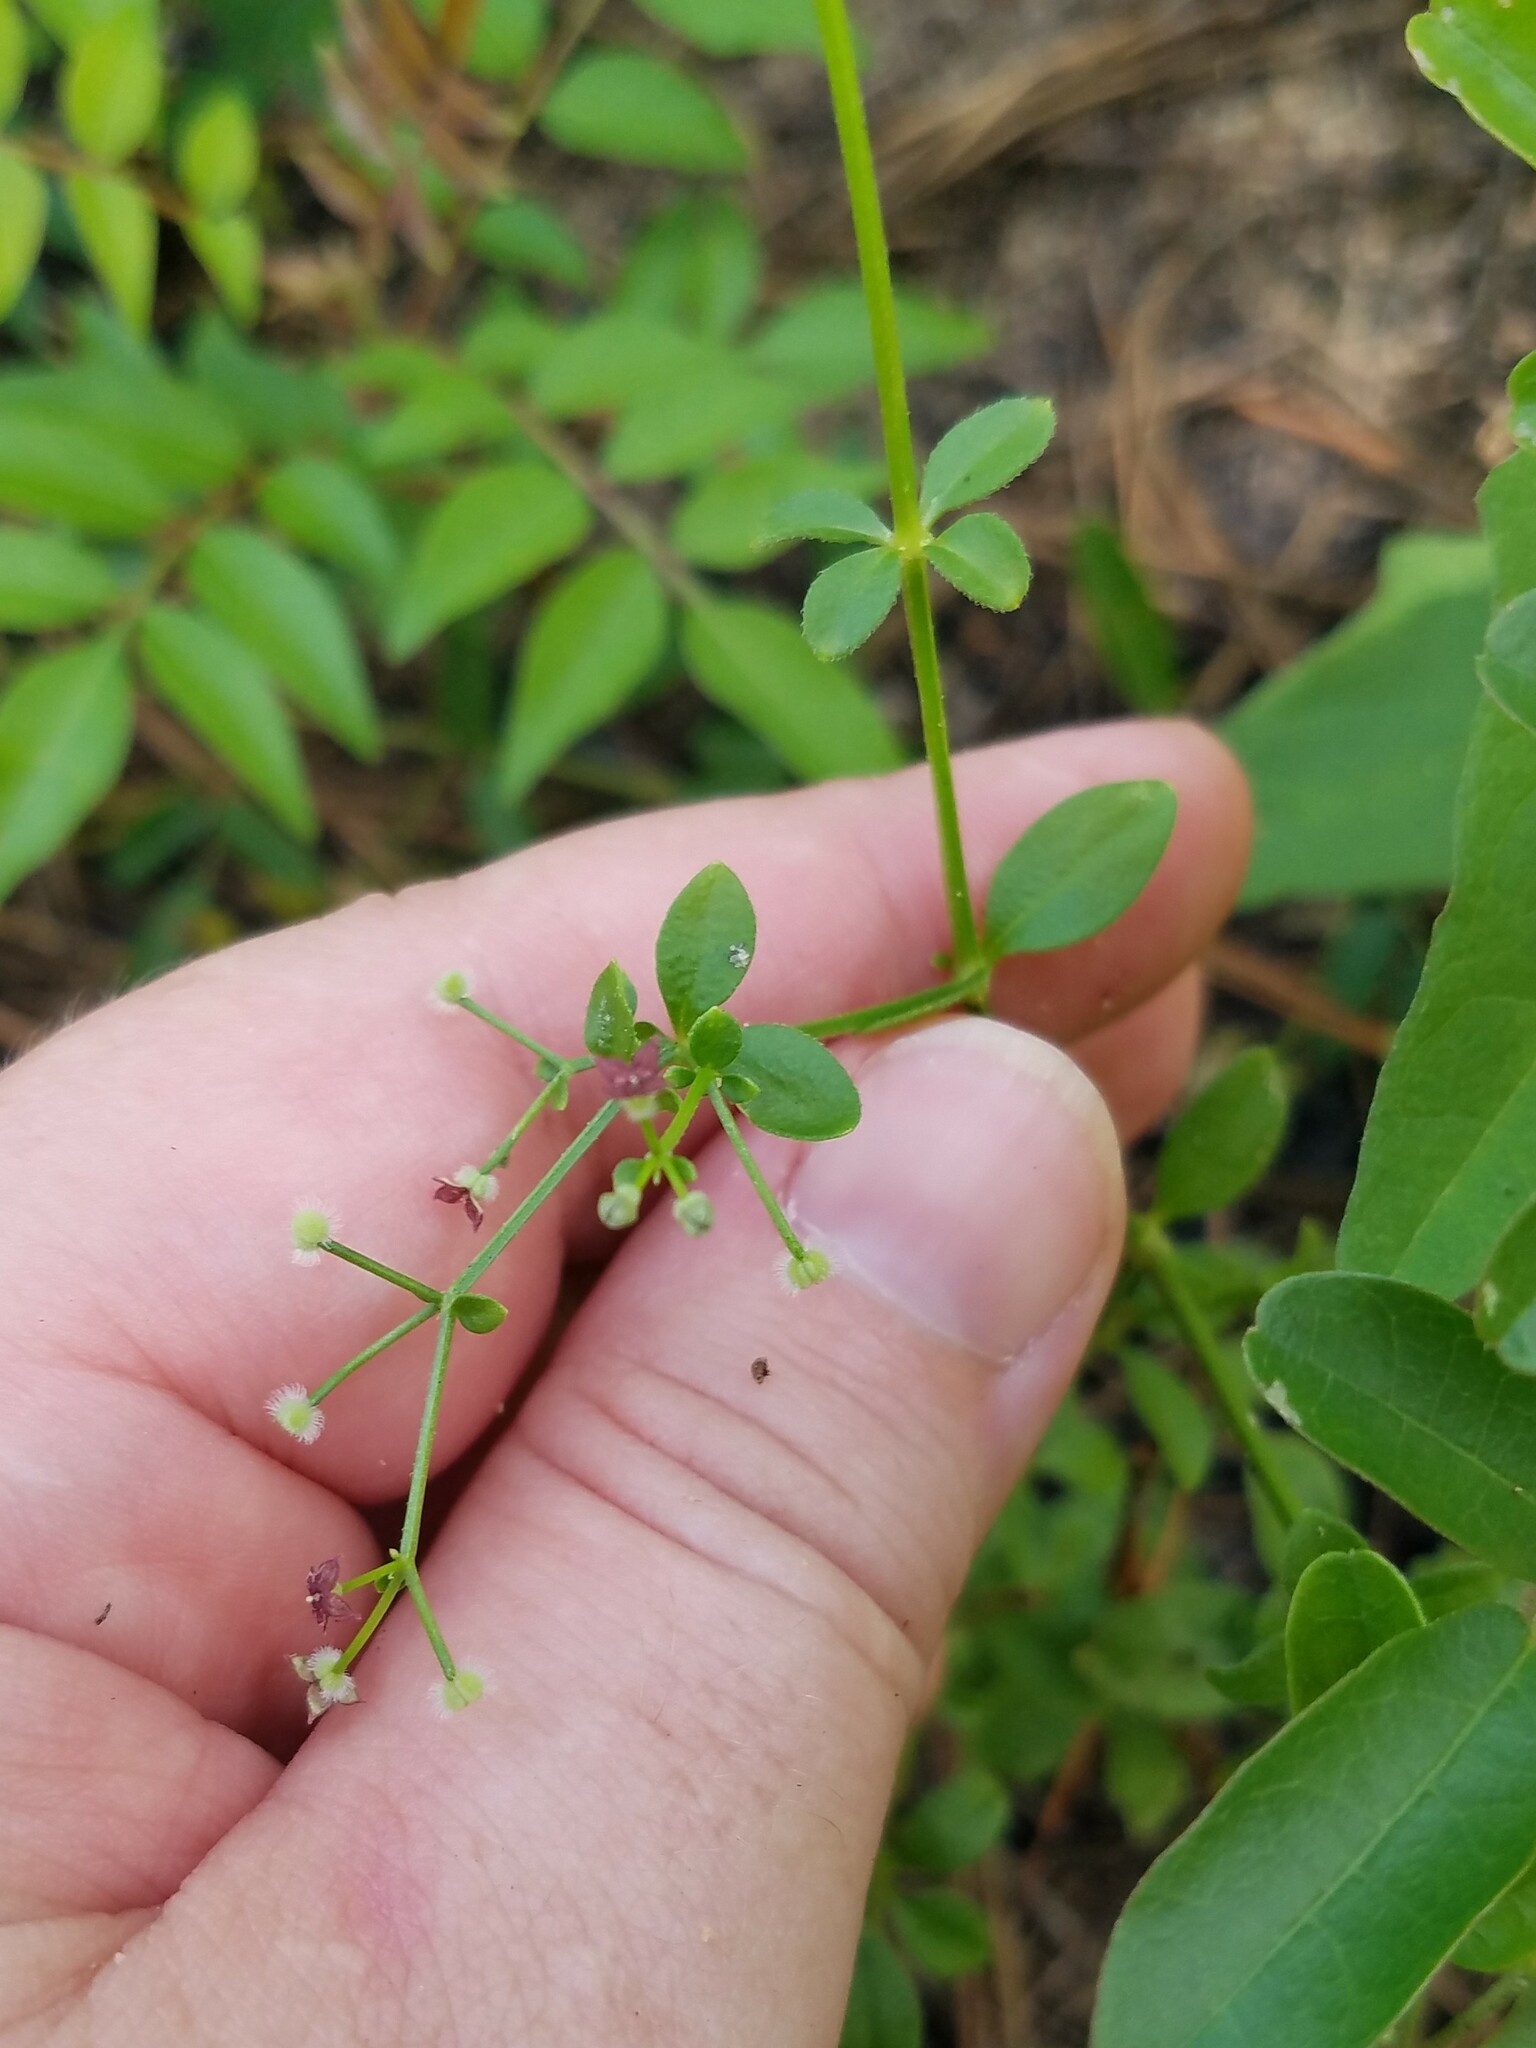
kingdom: Plantae
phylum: Tracheophyta
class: Magnoliopsida
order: Gentianales
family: Rubiaceae
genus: Galium
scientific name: Galium pilosum
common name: Hairy bedstraw
